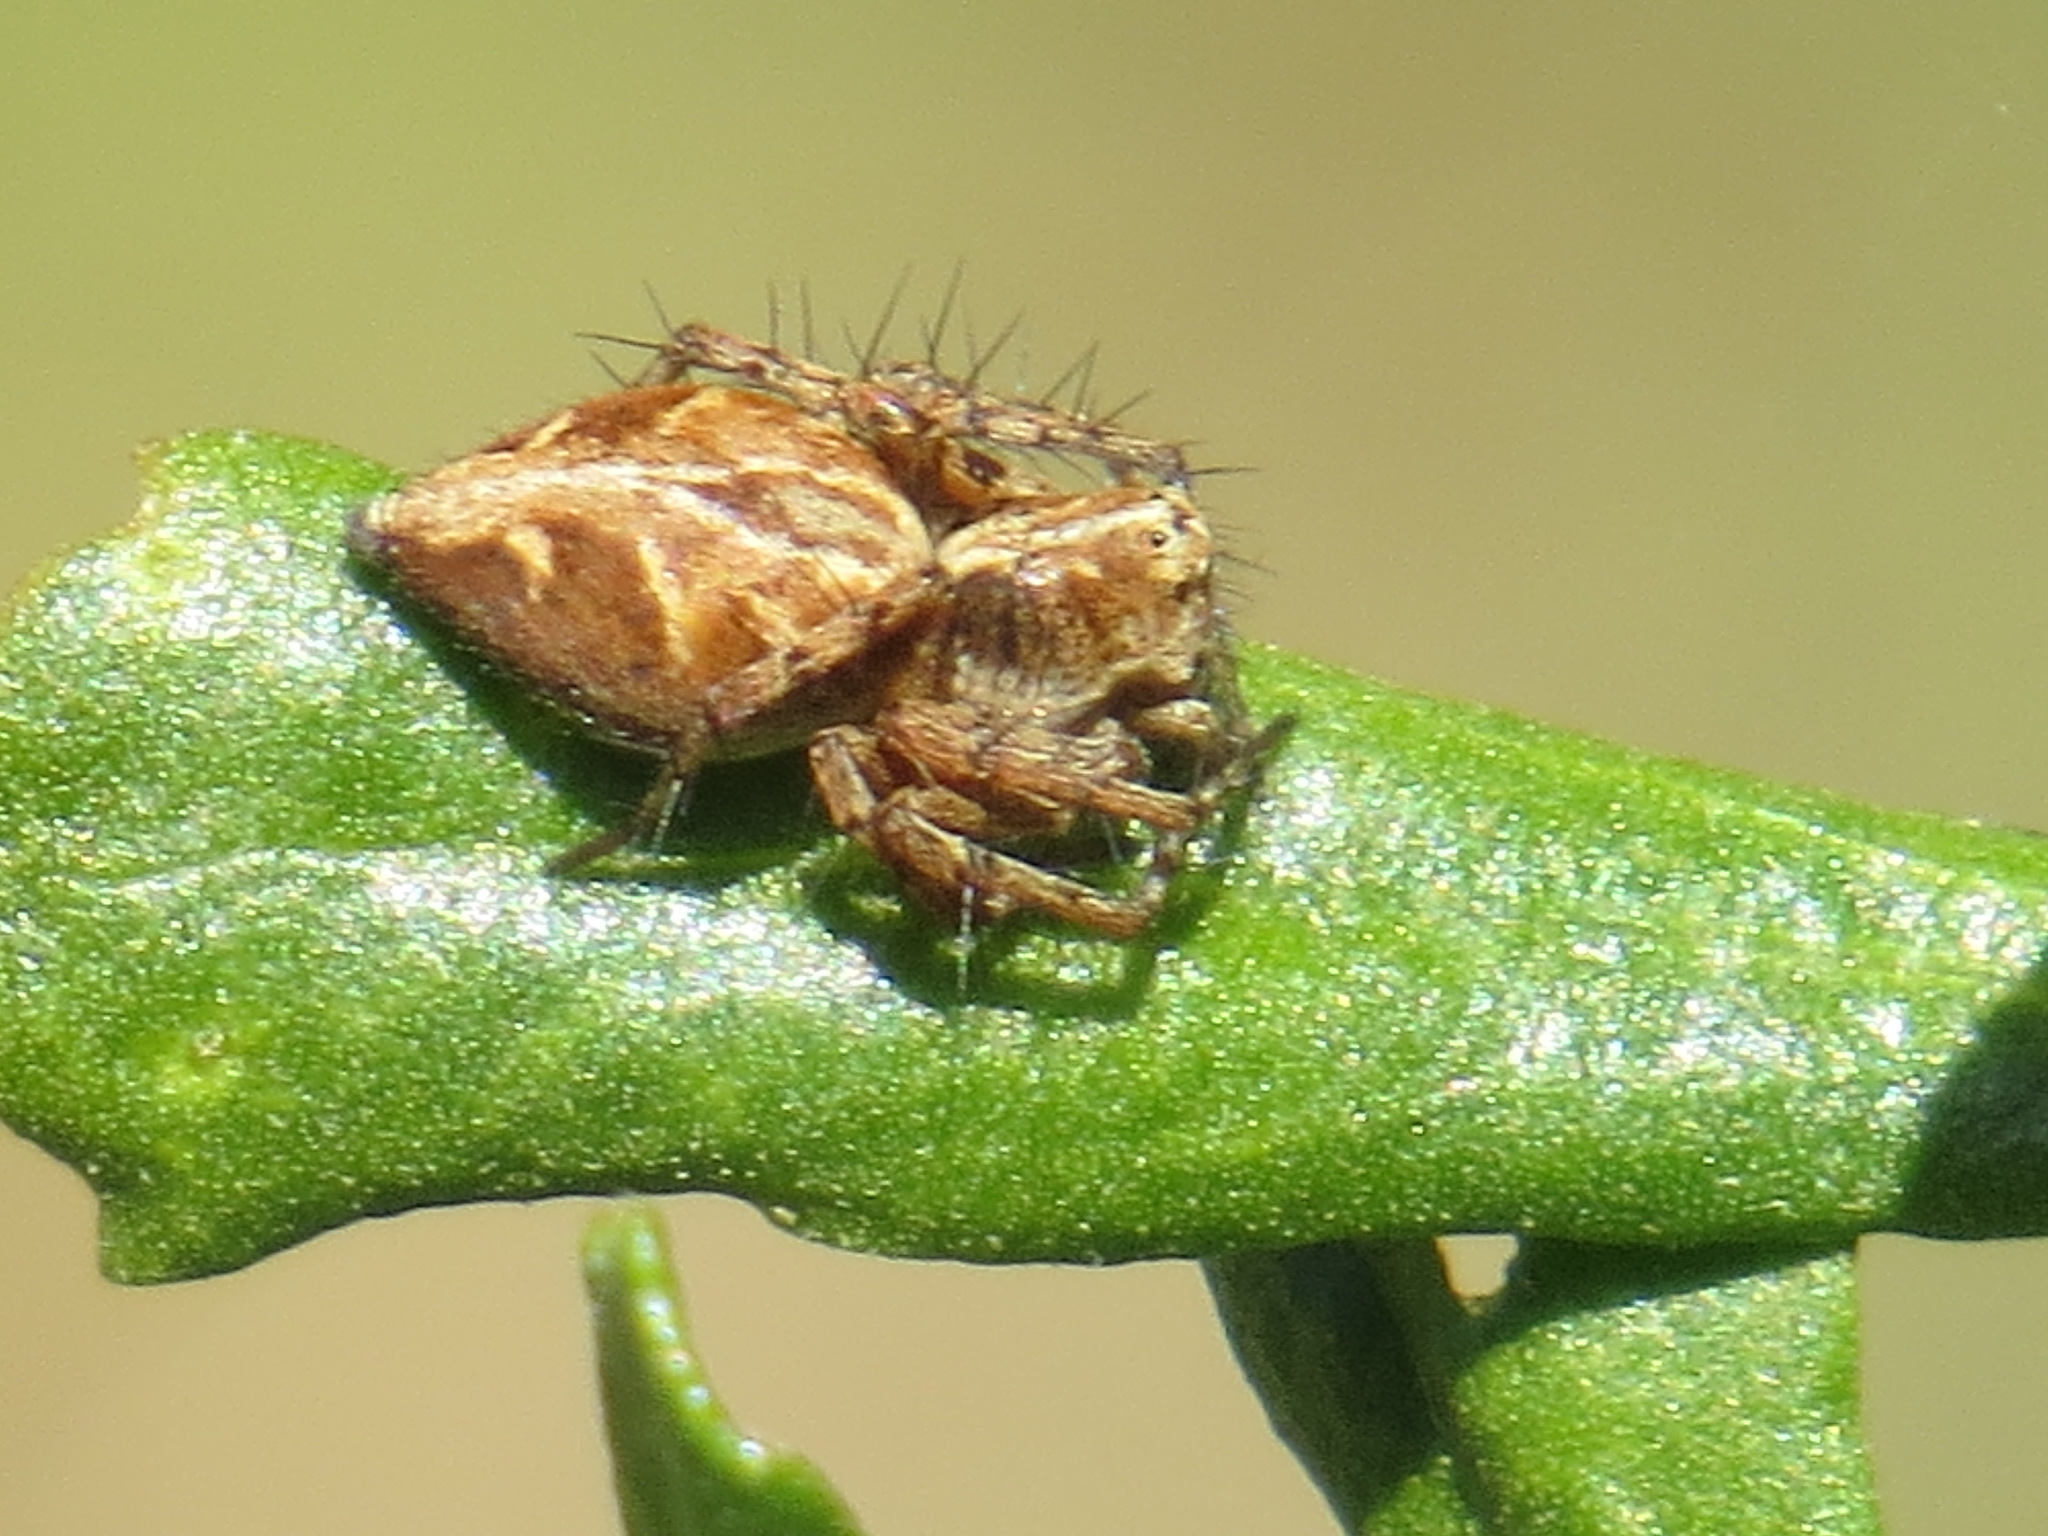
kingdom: Animalia
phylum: Arthropoda
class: Arachnida
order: Araneae
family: Oxyopidae
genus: Oxyopes
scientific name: Oxyopes scalaris
